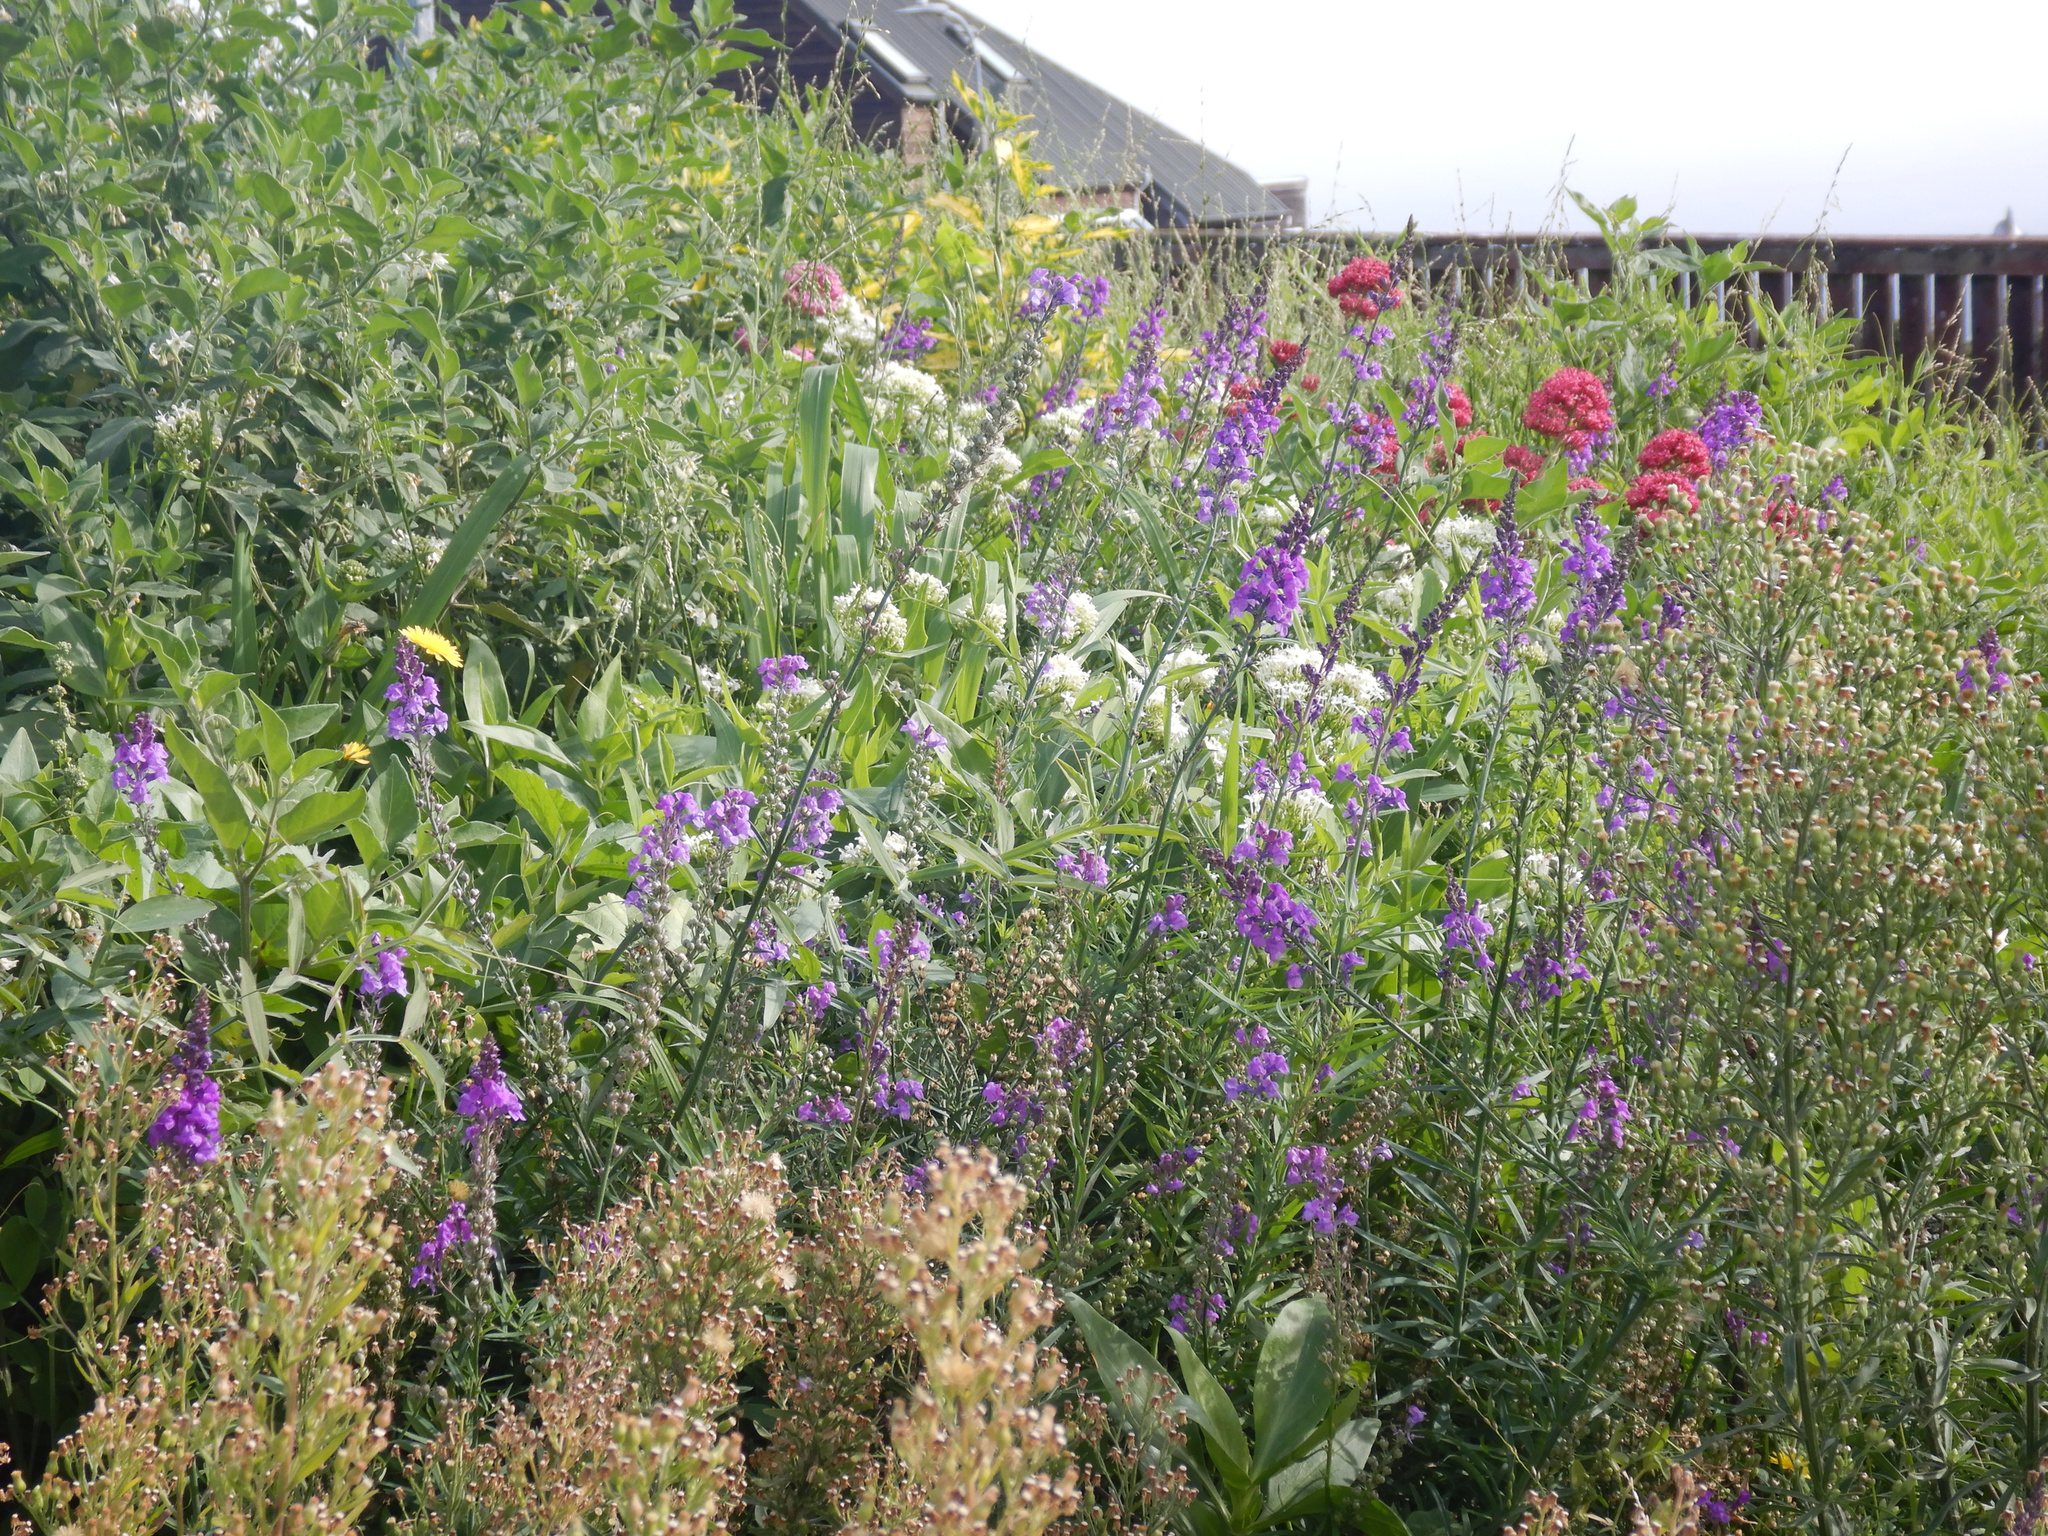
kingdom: Plantae
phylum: Tracheophyta
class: Magnoliopsida
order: Dipsacales
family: Caprifoliaceae
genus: Centranthus
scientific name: Centranthus ruber
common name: Red valerian
